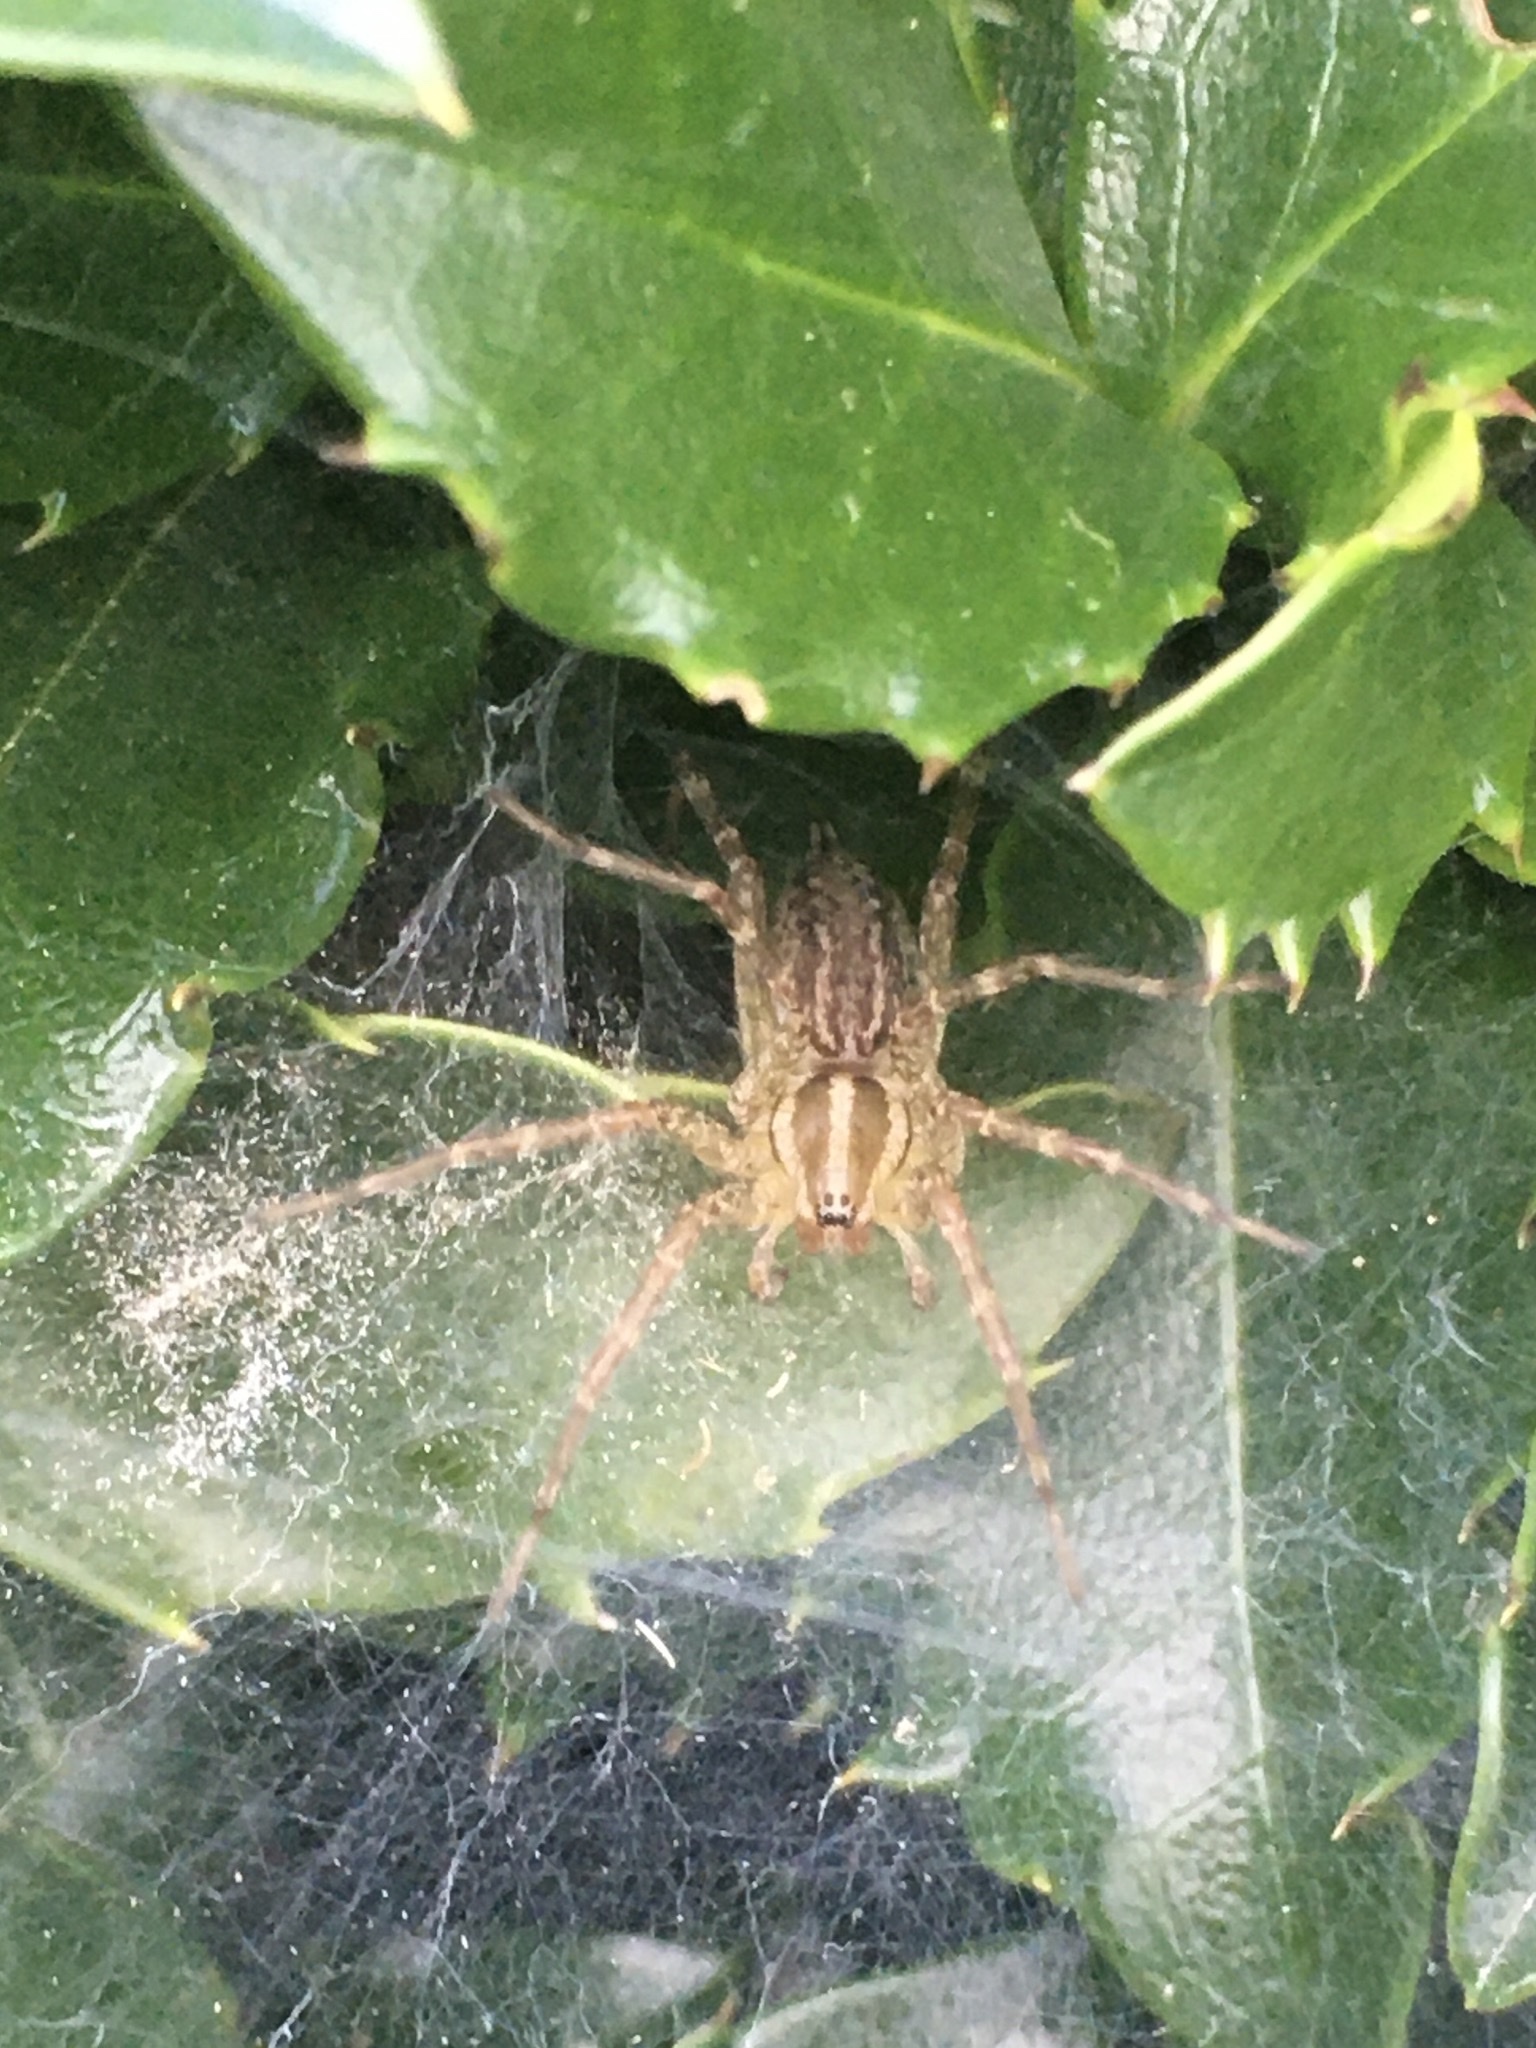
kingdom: Animalia
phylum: Arthropoda
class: Arachnida
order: Araneae
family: Agelenidae
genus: Agelenopsis
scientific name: Agelenopsis
